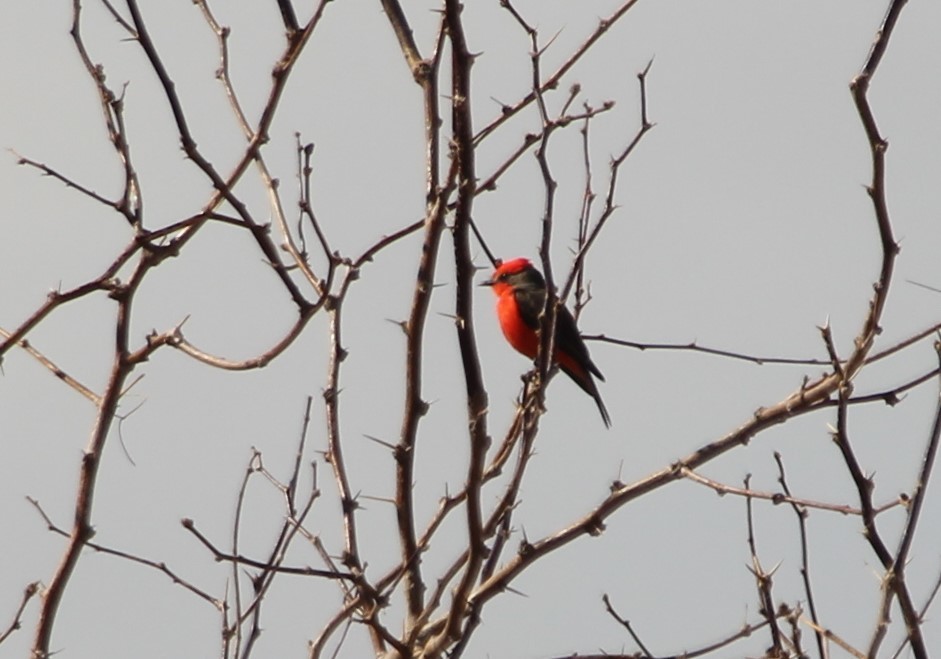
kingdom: Animalia
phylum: Chordata
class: Aves
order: Passeriformes
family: Tyrannidae
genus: Pyrocephalus
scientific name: Pyrocephalus rubinus
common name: Vermilion flycatcher
